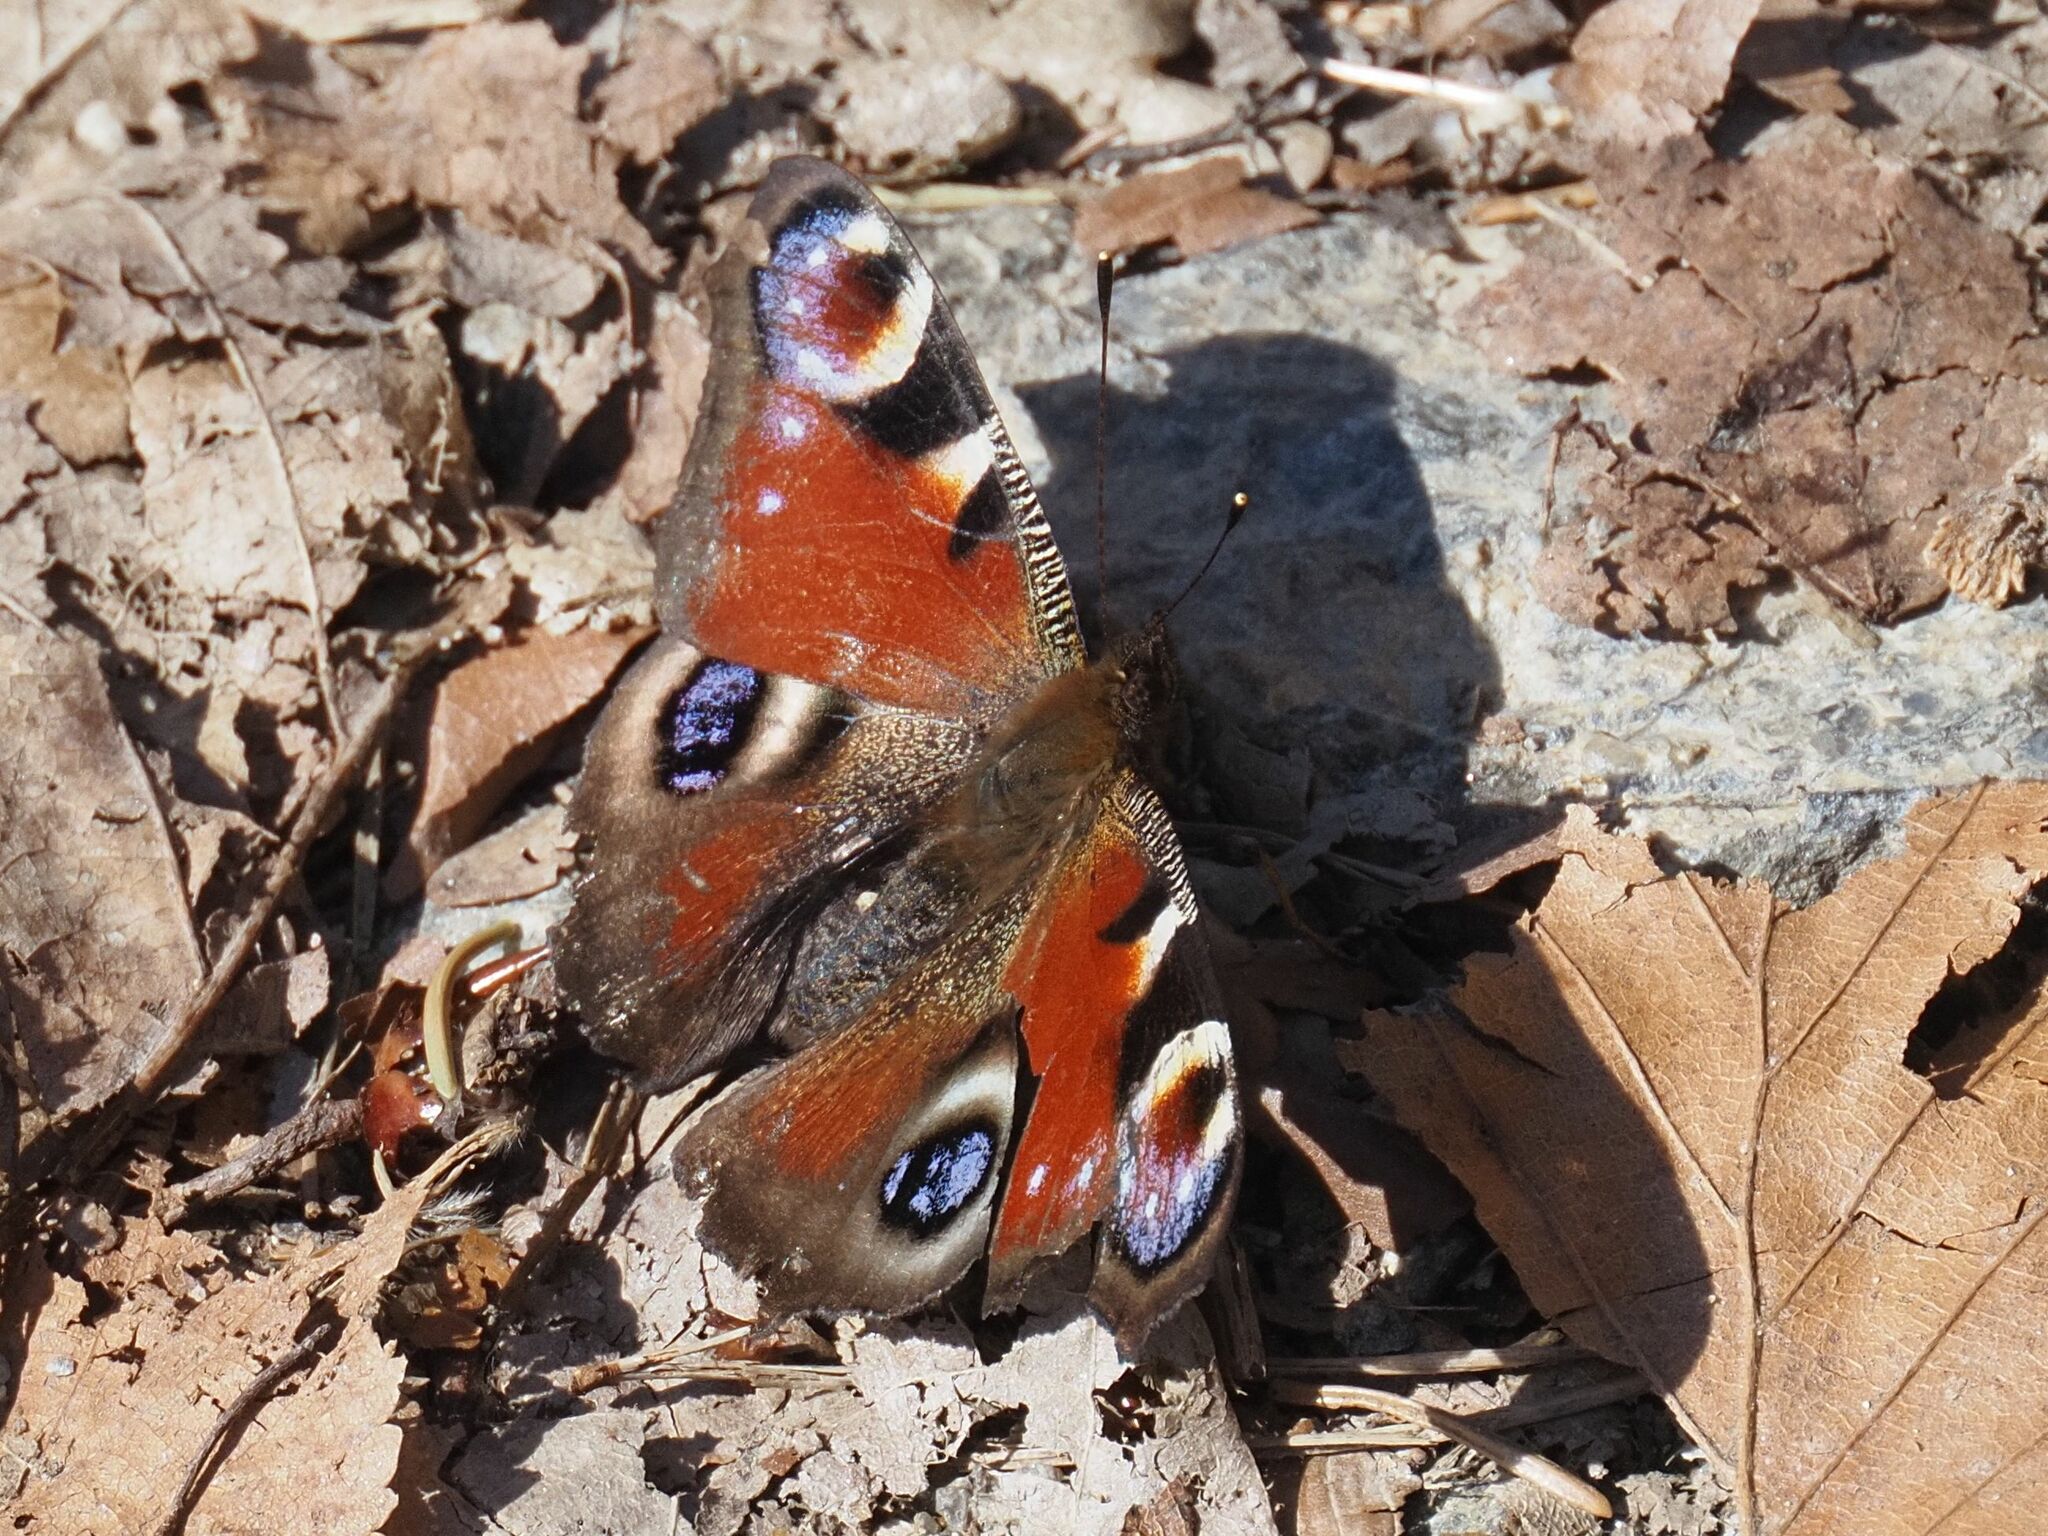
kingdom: Animalia
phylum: Arthropoda
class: Insecta
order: Lepidoptera
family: Nymphalidae
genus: Aglais
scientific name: Aglais io
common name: Peacock
